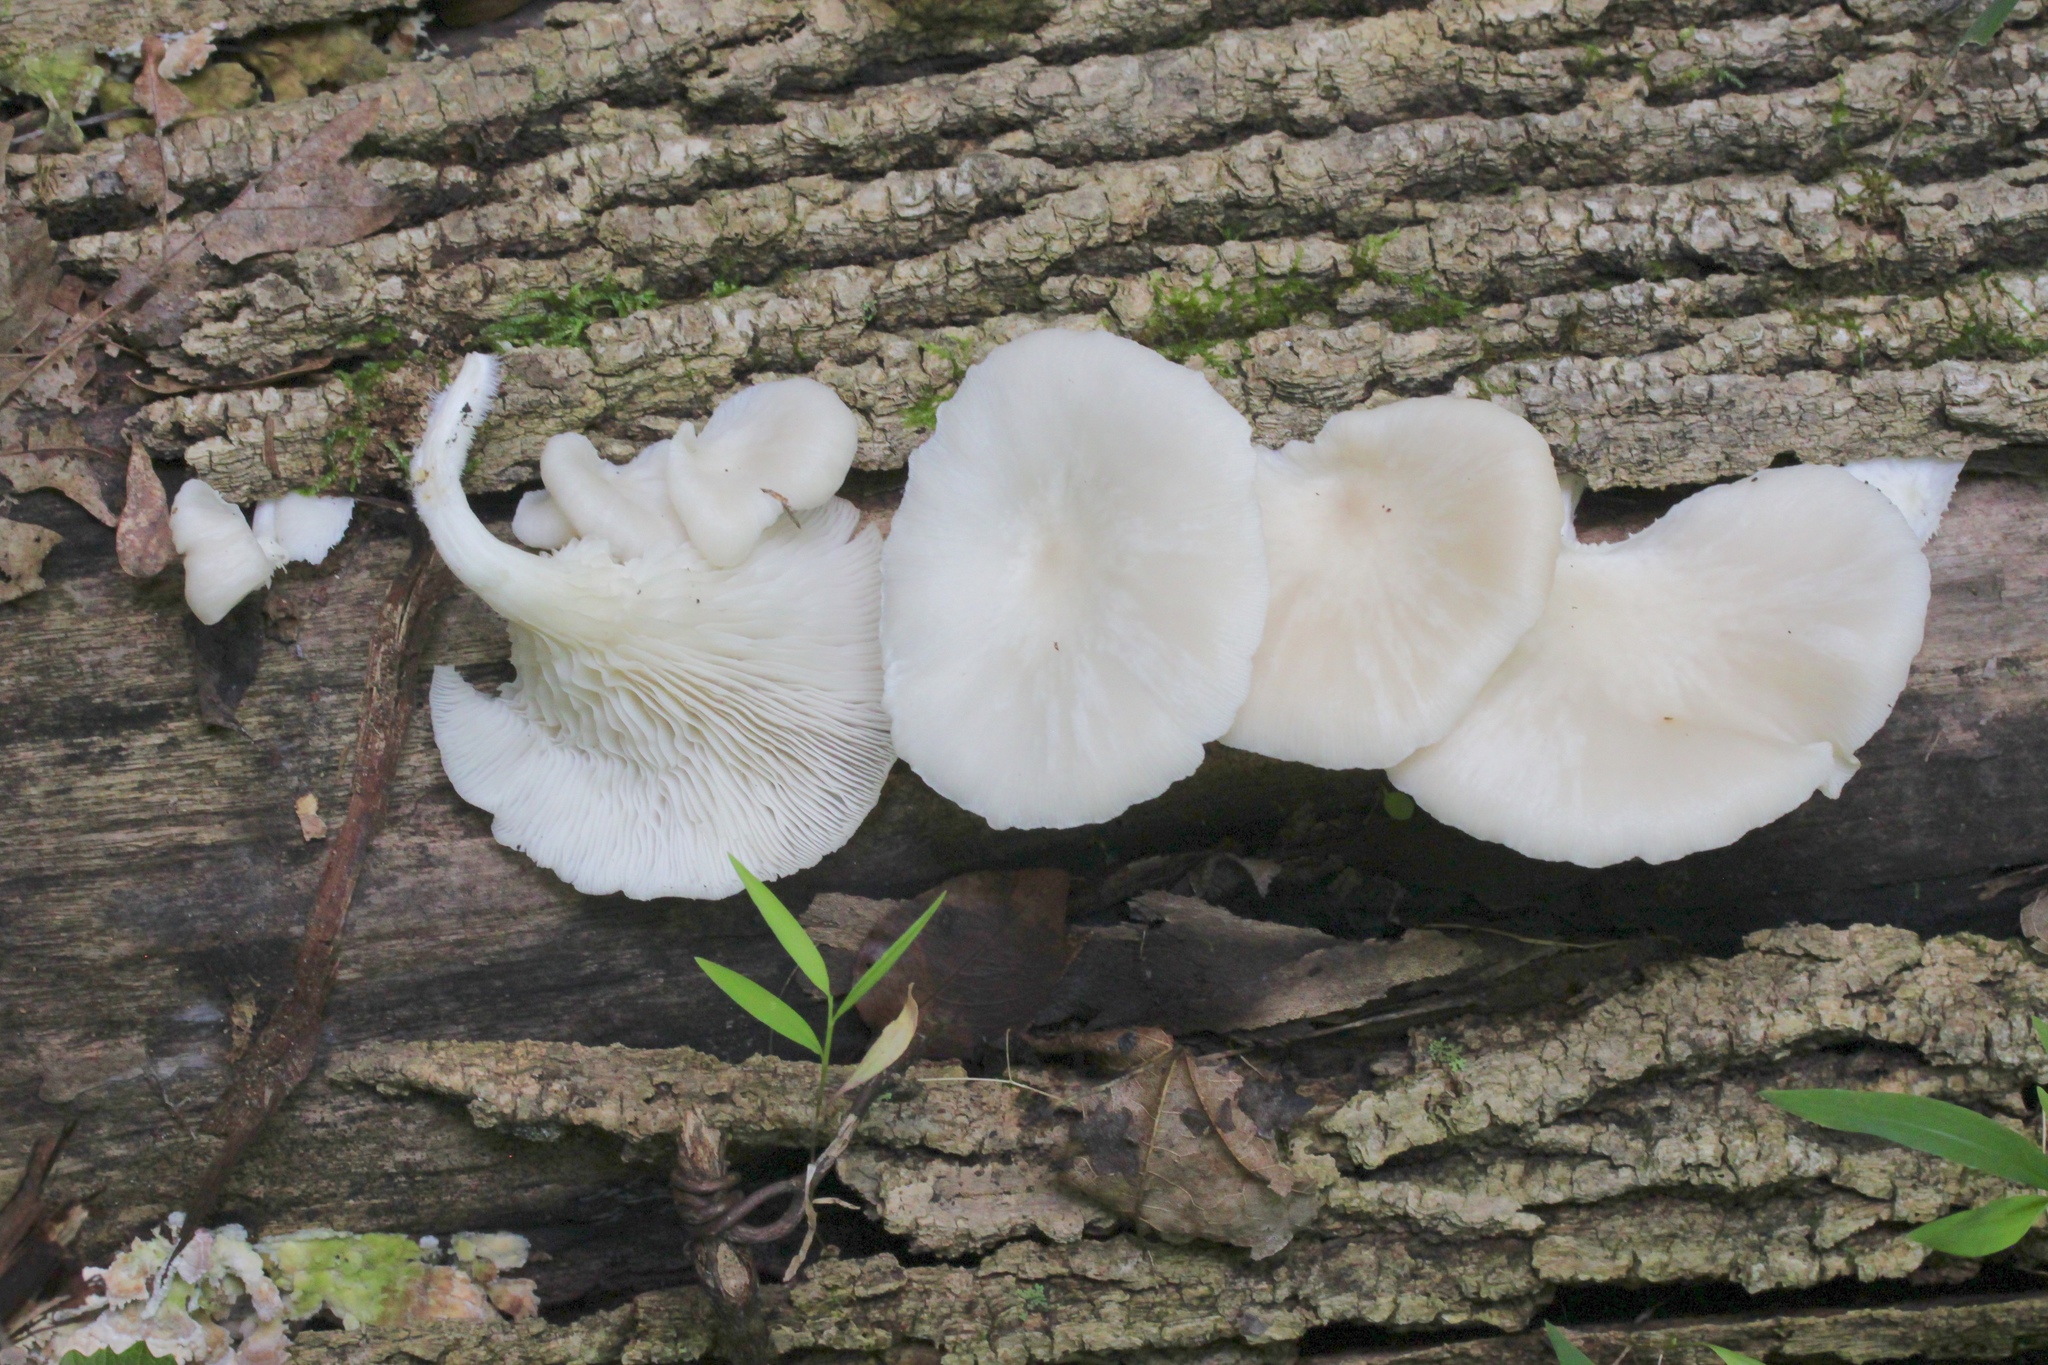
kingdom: Fungi
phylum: Basidiomycota
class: Agaricomycetes
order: Agaricales
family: Pleurotaceae
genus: Pleurotus
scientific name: Pleurotus pulmonarius
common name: Pale oyster
